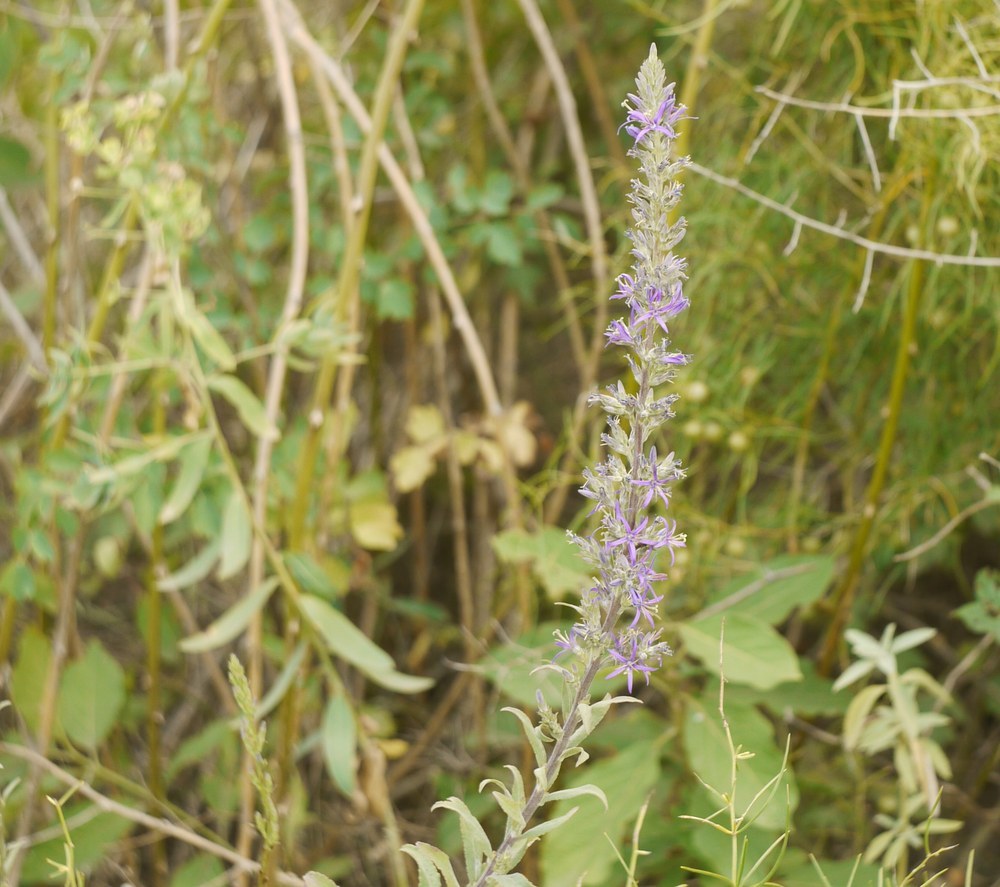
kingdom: Plantae
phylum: Tracheophyta
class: Magnoliopsida
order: Asterales
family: Campanulaceae
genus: Asyneuma
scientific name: Asyneuma canescens
